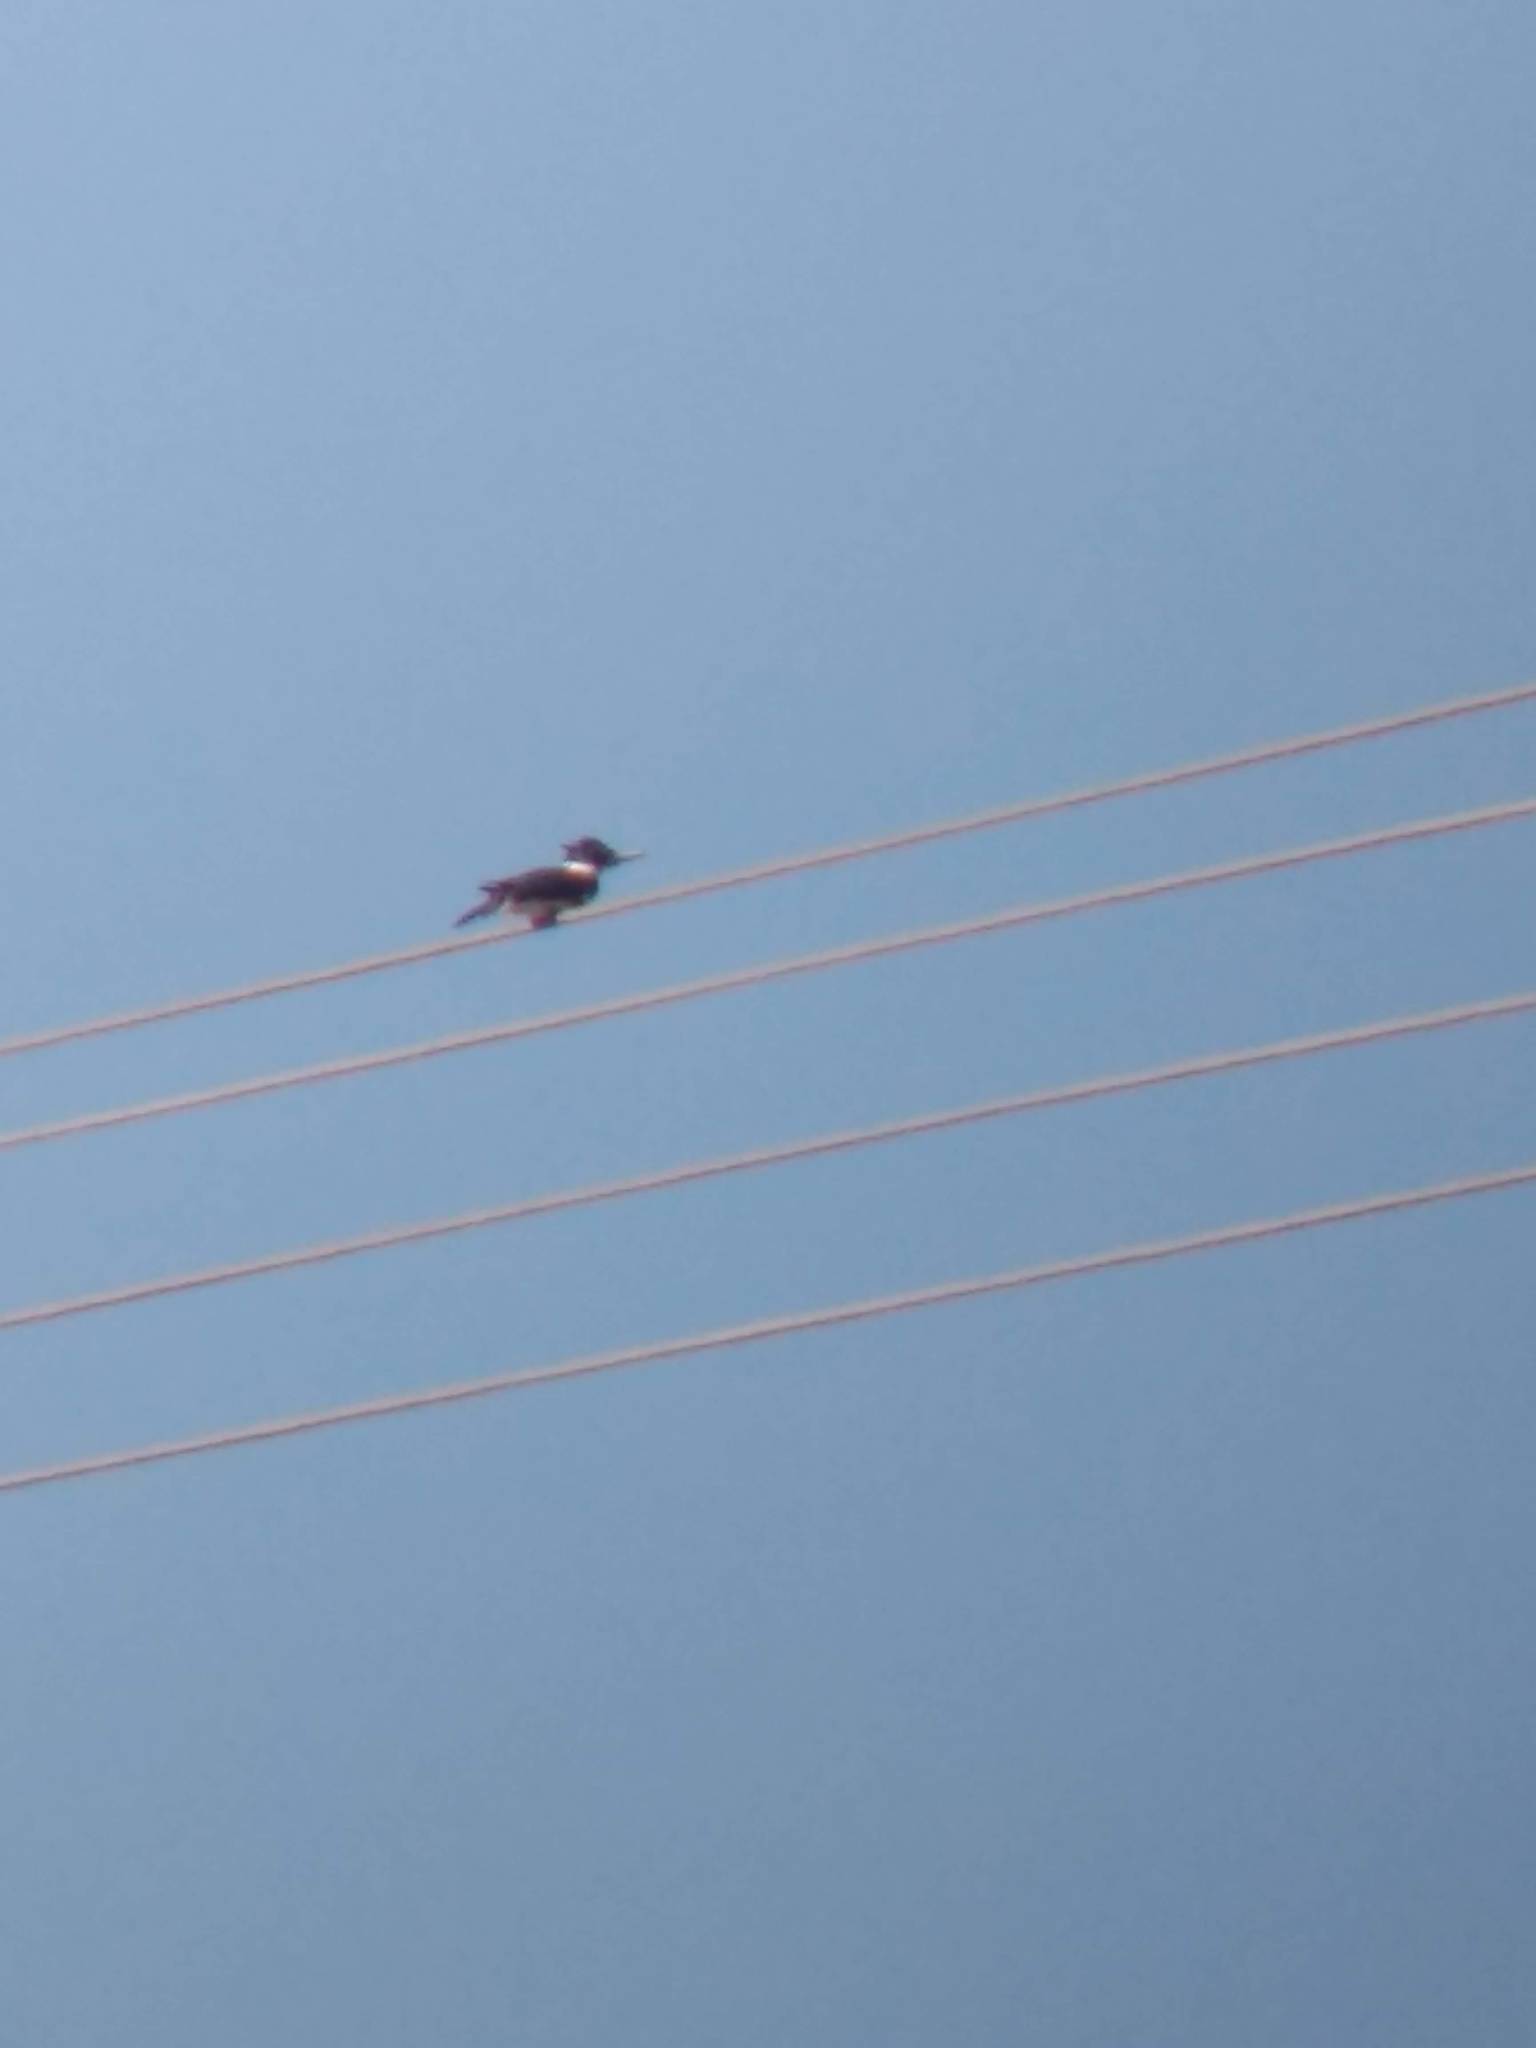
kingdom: Animalia
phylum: Chordata
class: Aves
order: Coraciiformes
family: Alcedinidae
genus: Megaceryle
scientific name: Megaceryle alcyon
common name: Belted kingfisher
